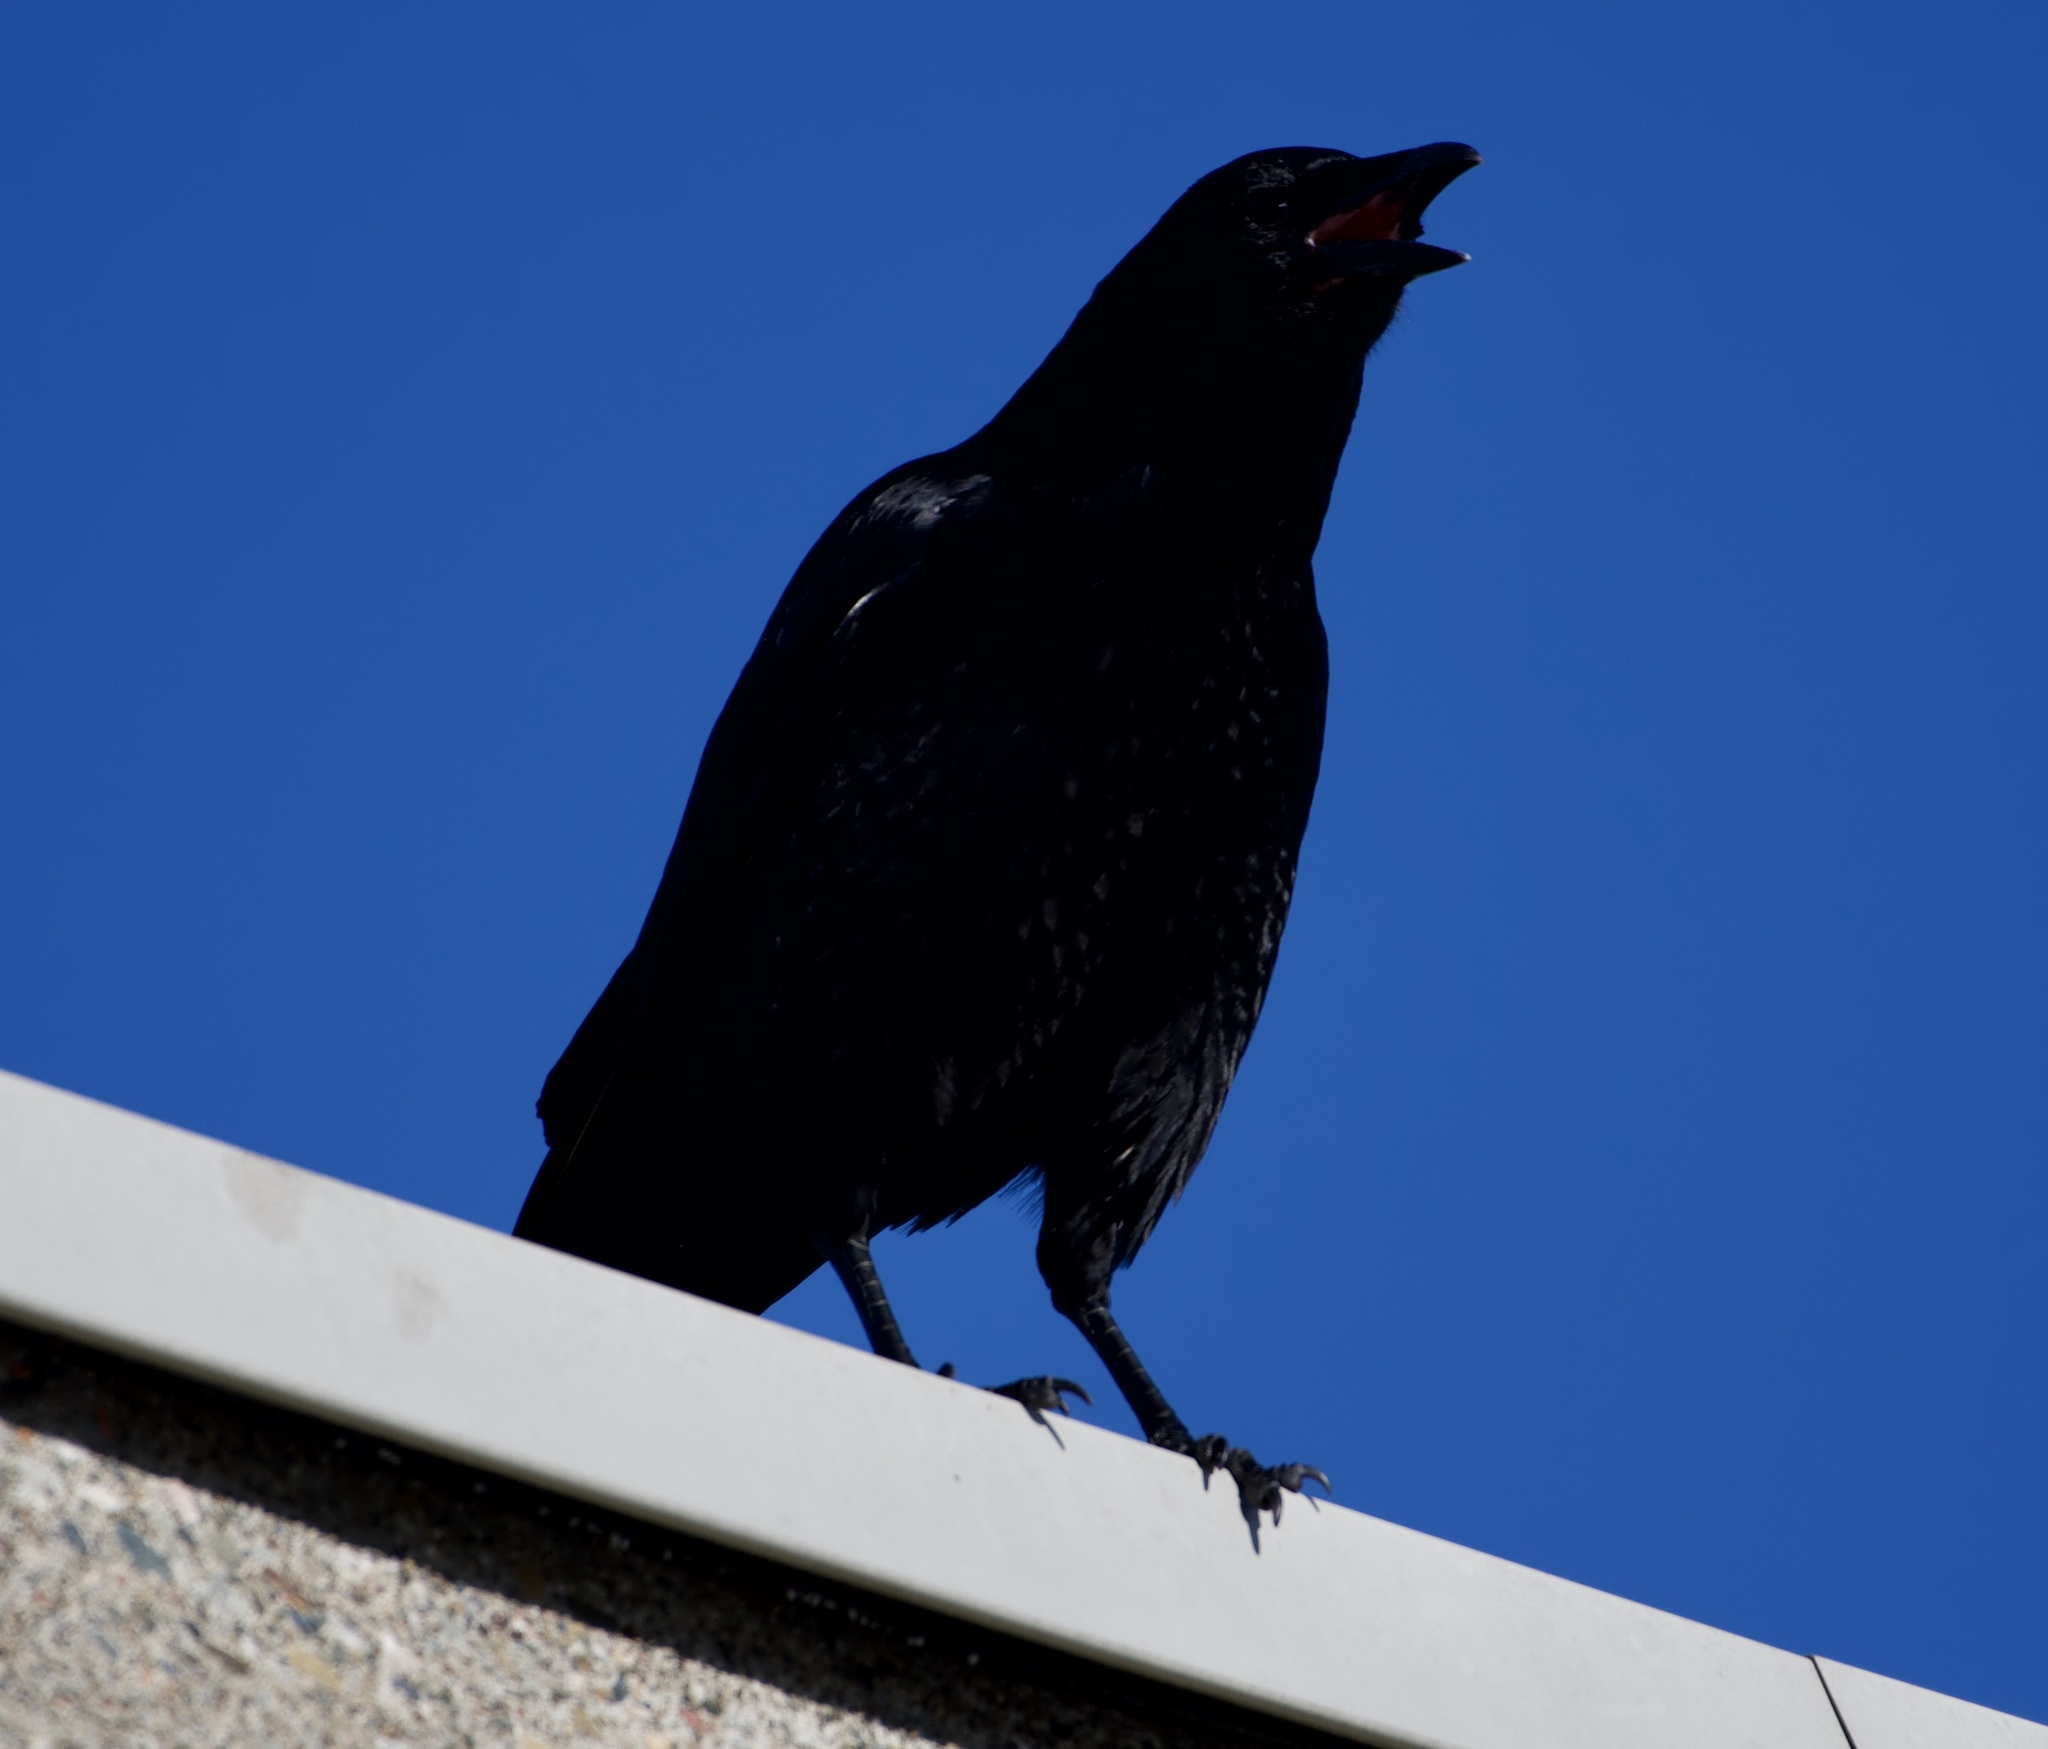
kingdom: Animalia
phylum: Chordata
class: Aves
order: Passeriformes
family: Corvidae
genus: Corvus
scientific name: Corvus brachyrhynchos
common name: American crow
